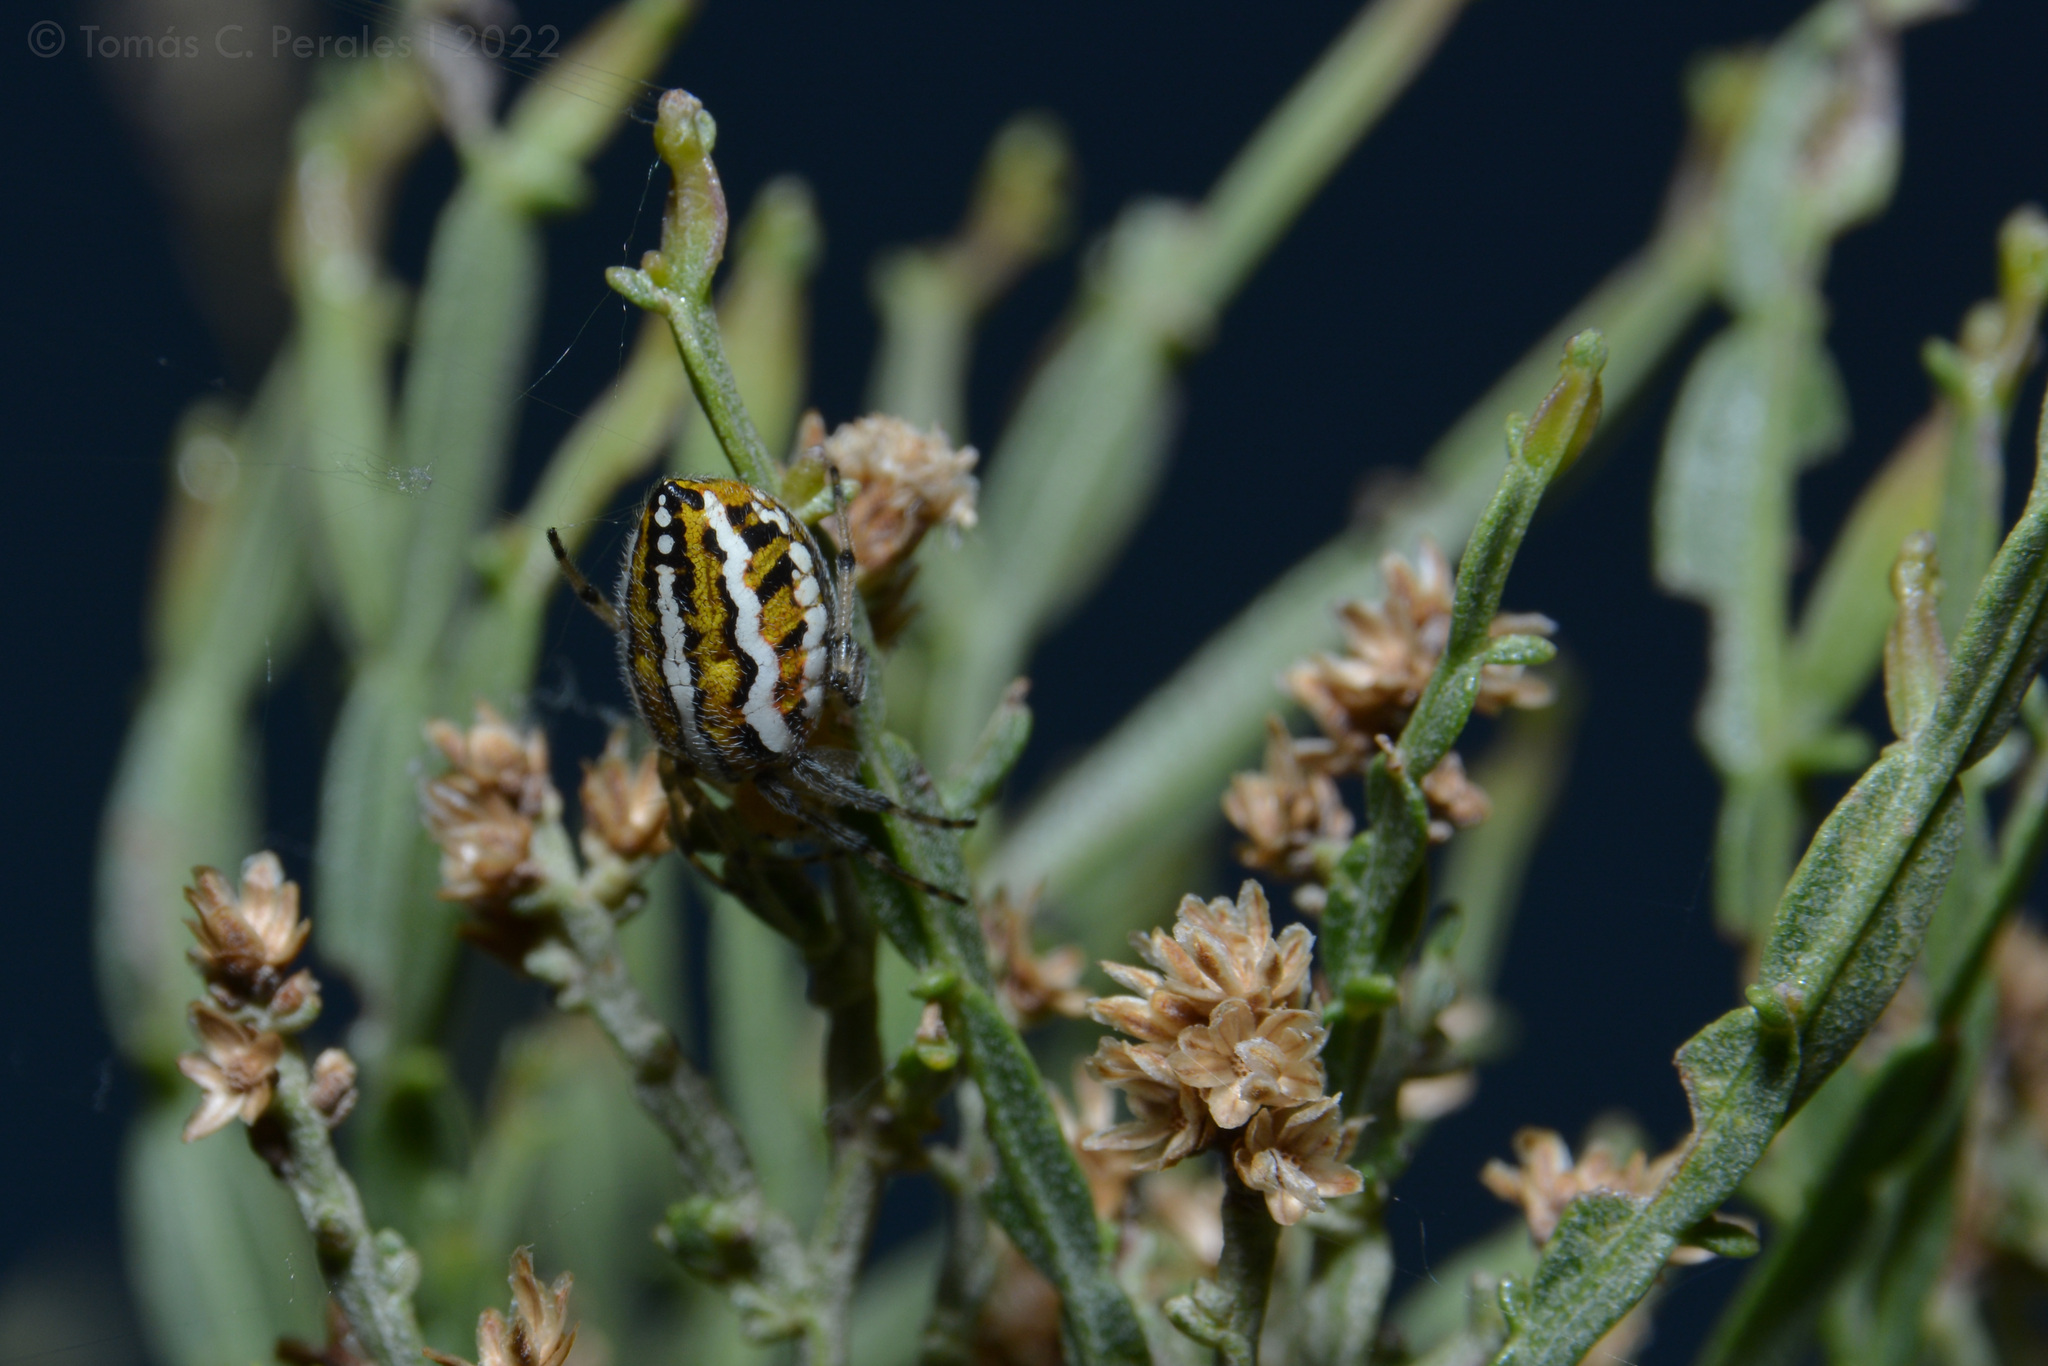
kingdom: Animalia
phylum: Arthropoda
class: Arachnida
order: Araneae
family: Araneidae
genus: Alpaida
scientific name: Alpaida rubellula
